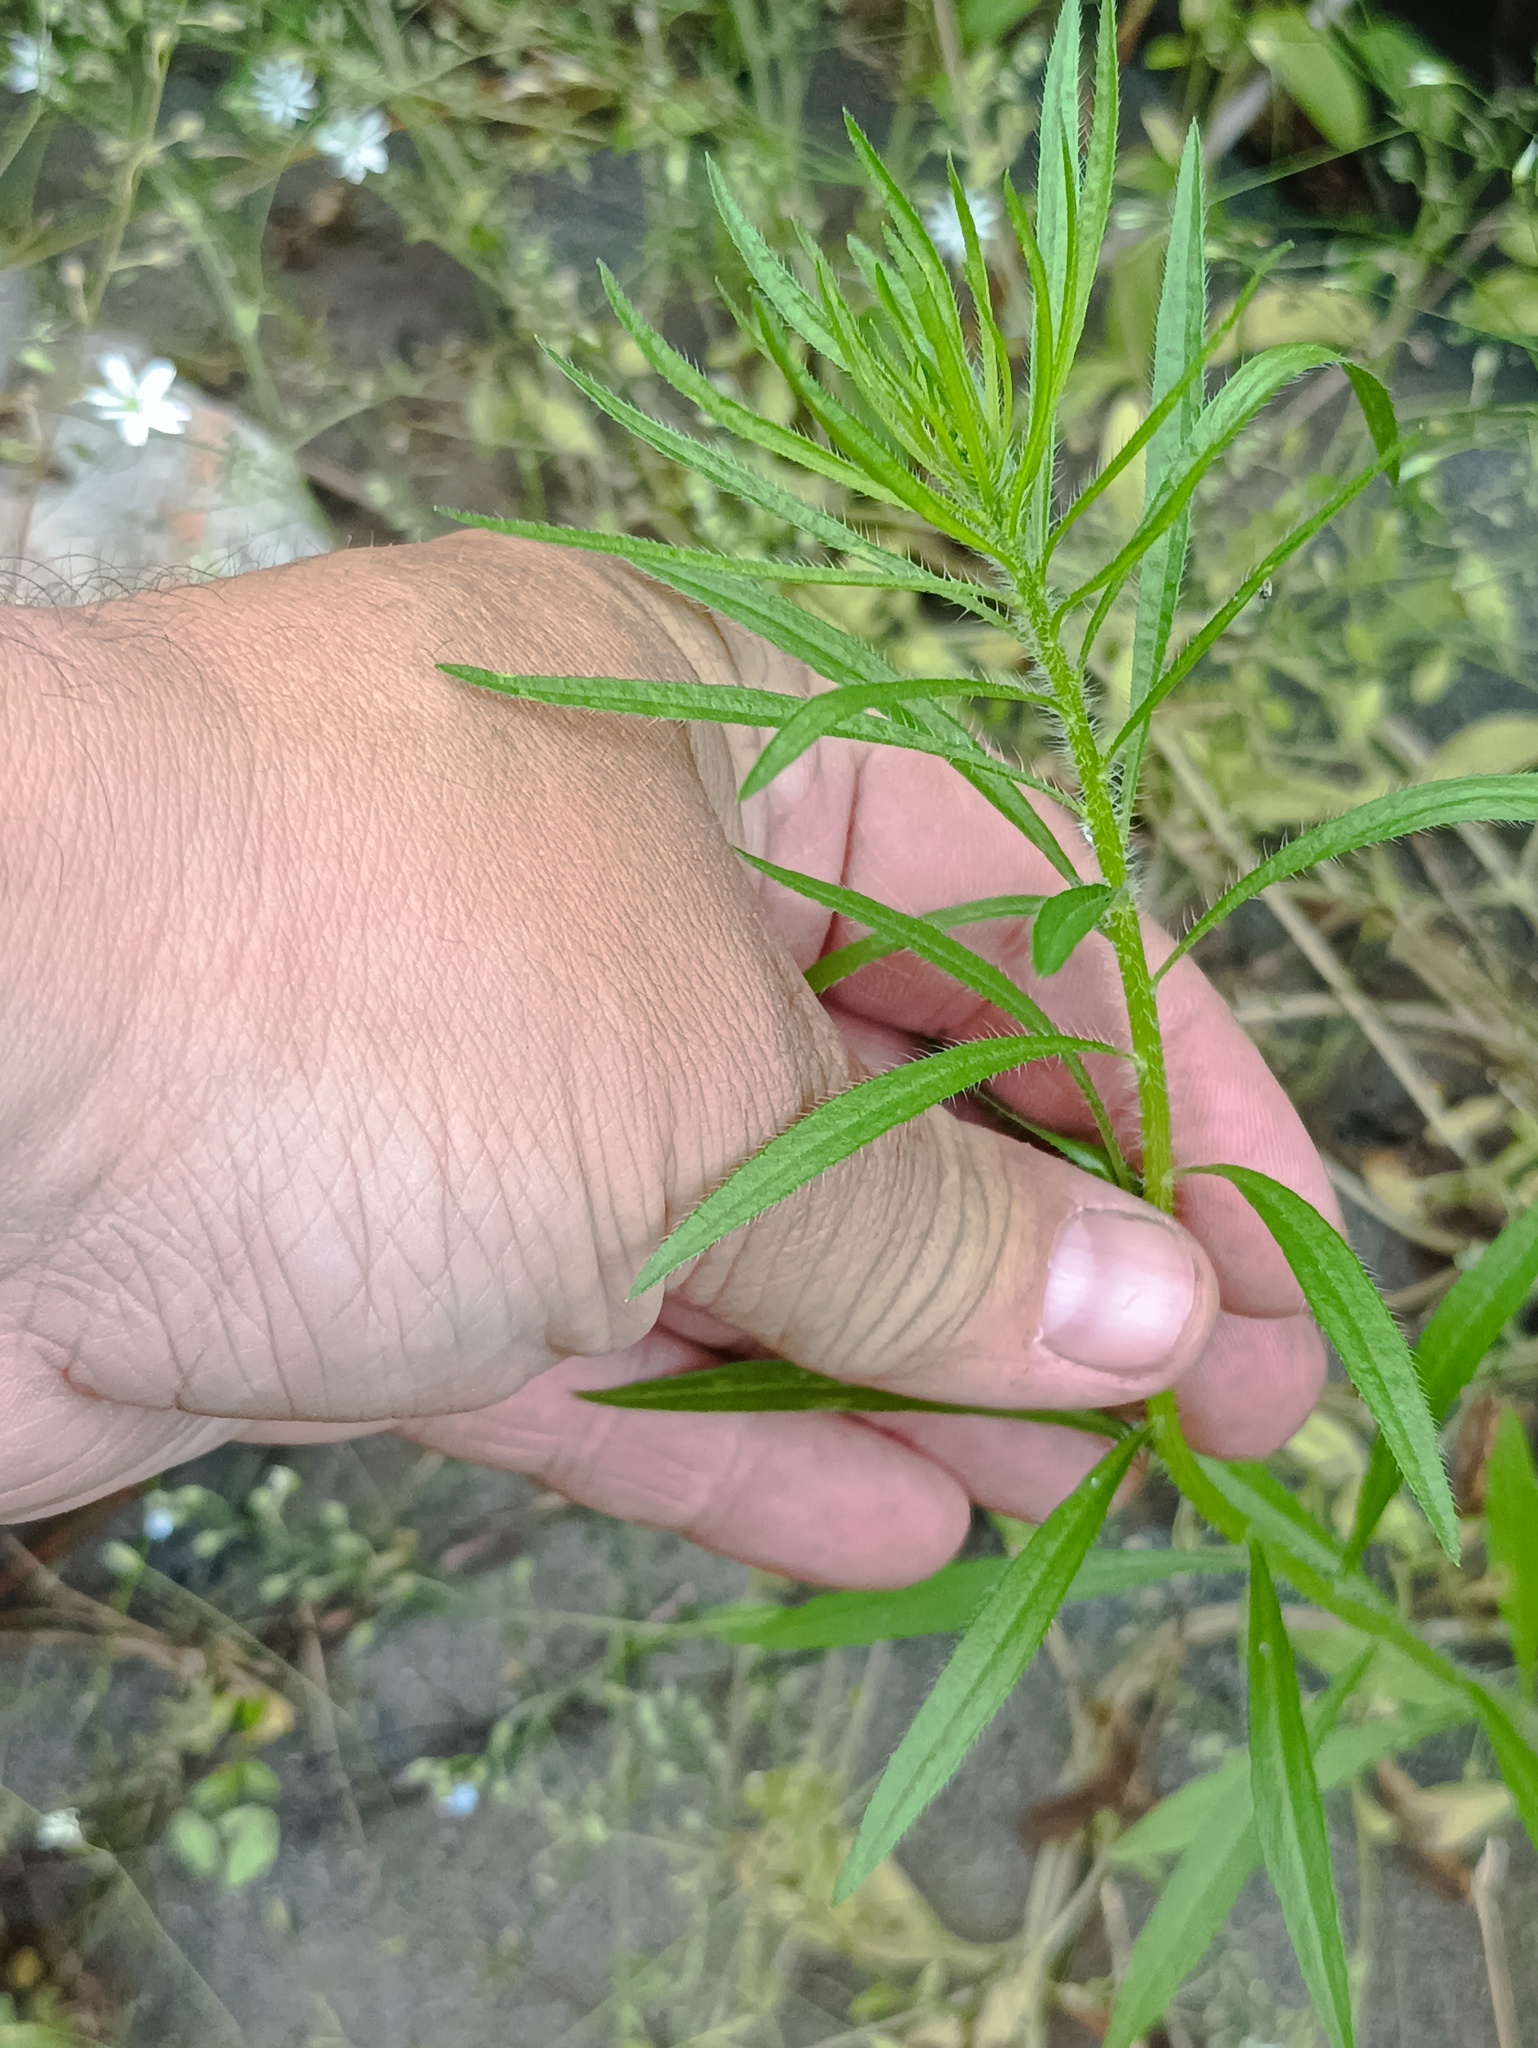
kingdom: Plantae
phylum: Tracheophyta
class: Magnoliopsida
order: Asterales
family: Asteraceae
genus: Erigeron
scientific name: Erigeron canadensis
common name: Canadian fleabane
